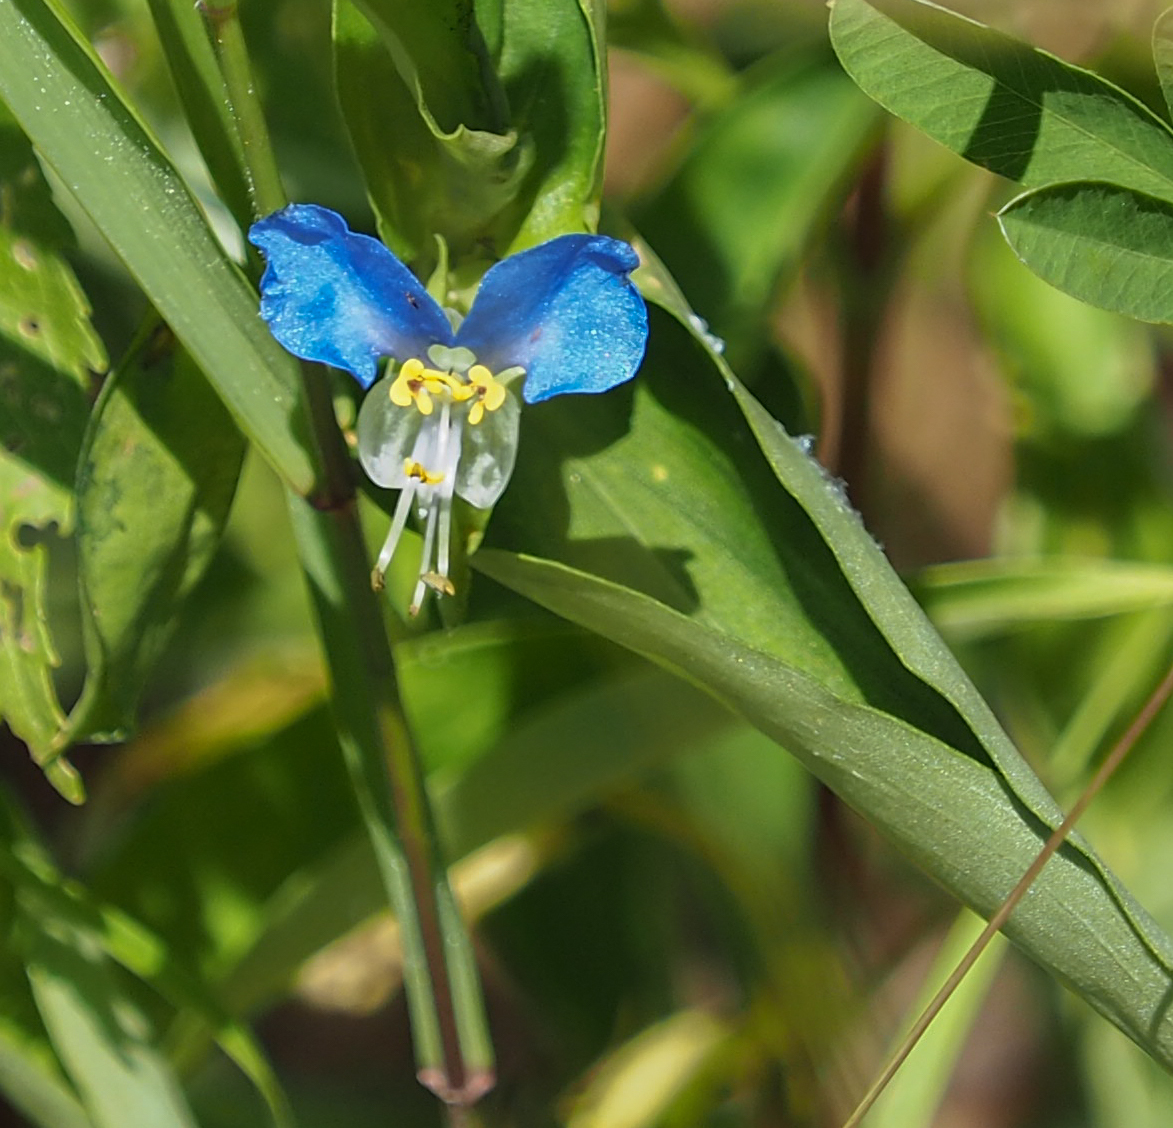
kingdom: Plantae
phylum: Tracheophyta
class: Liliopsida
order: Commelinales
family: Commelinaceae
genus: Commelina
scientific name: Commelina communis
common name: Asiatic dayflower
